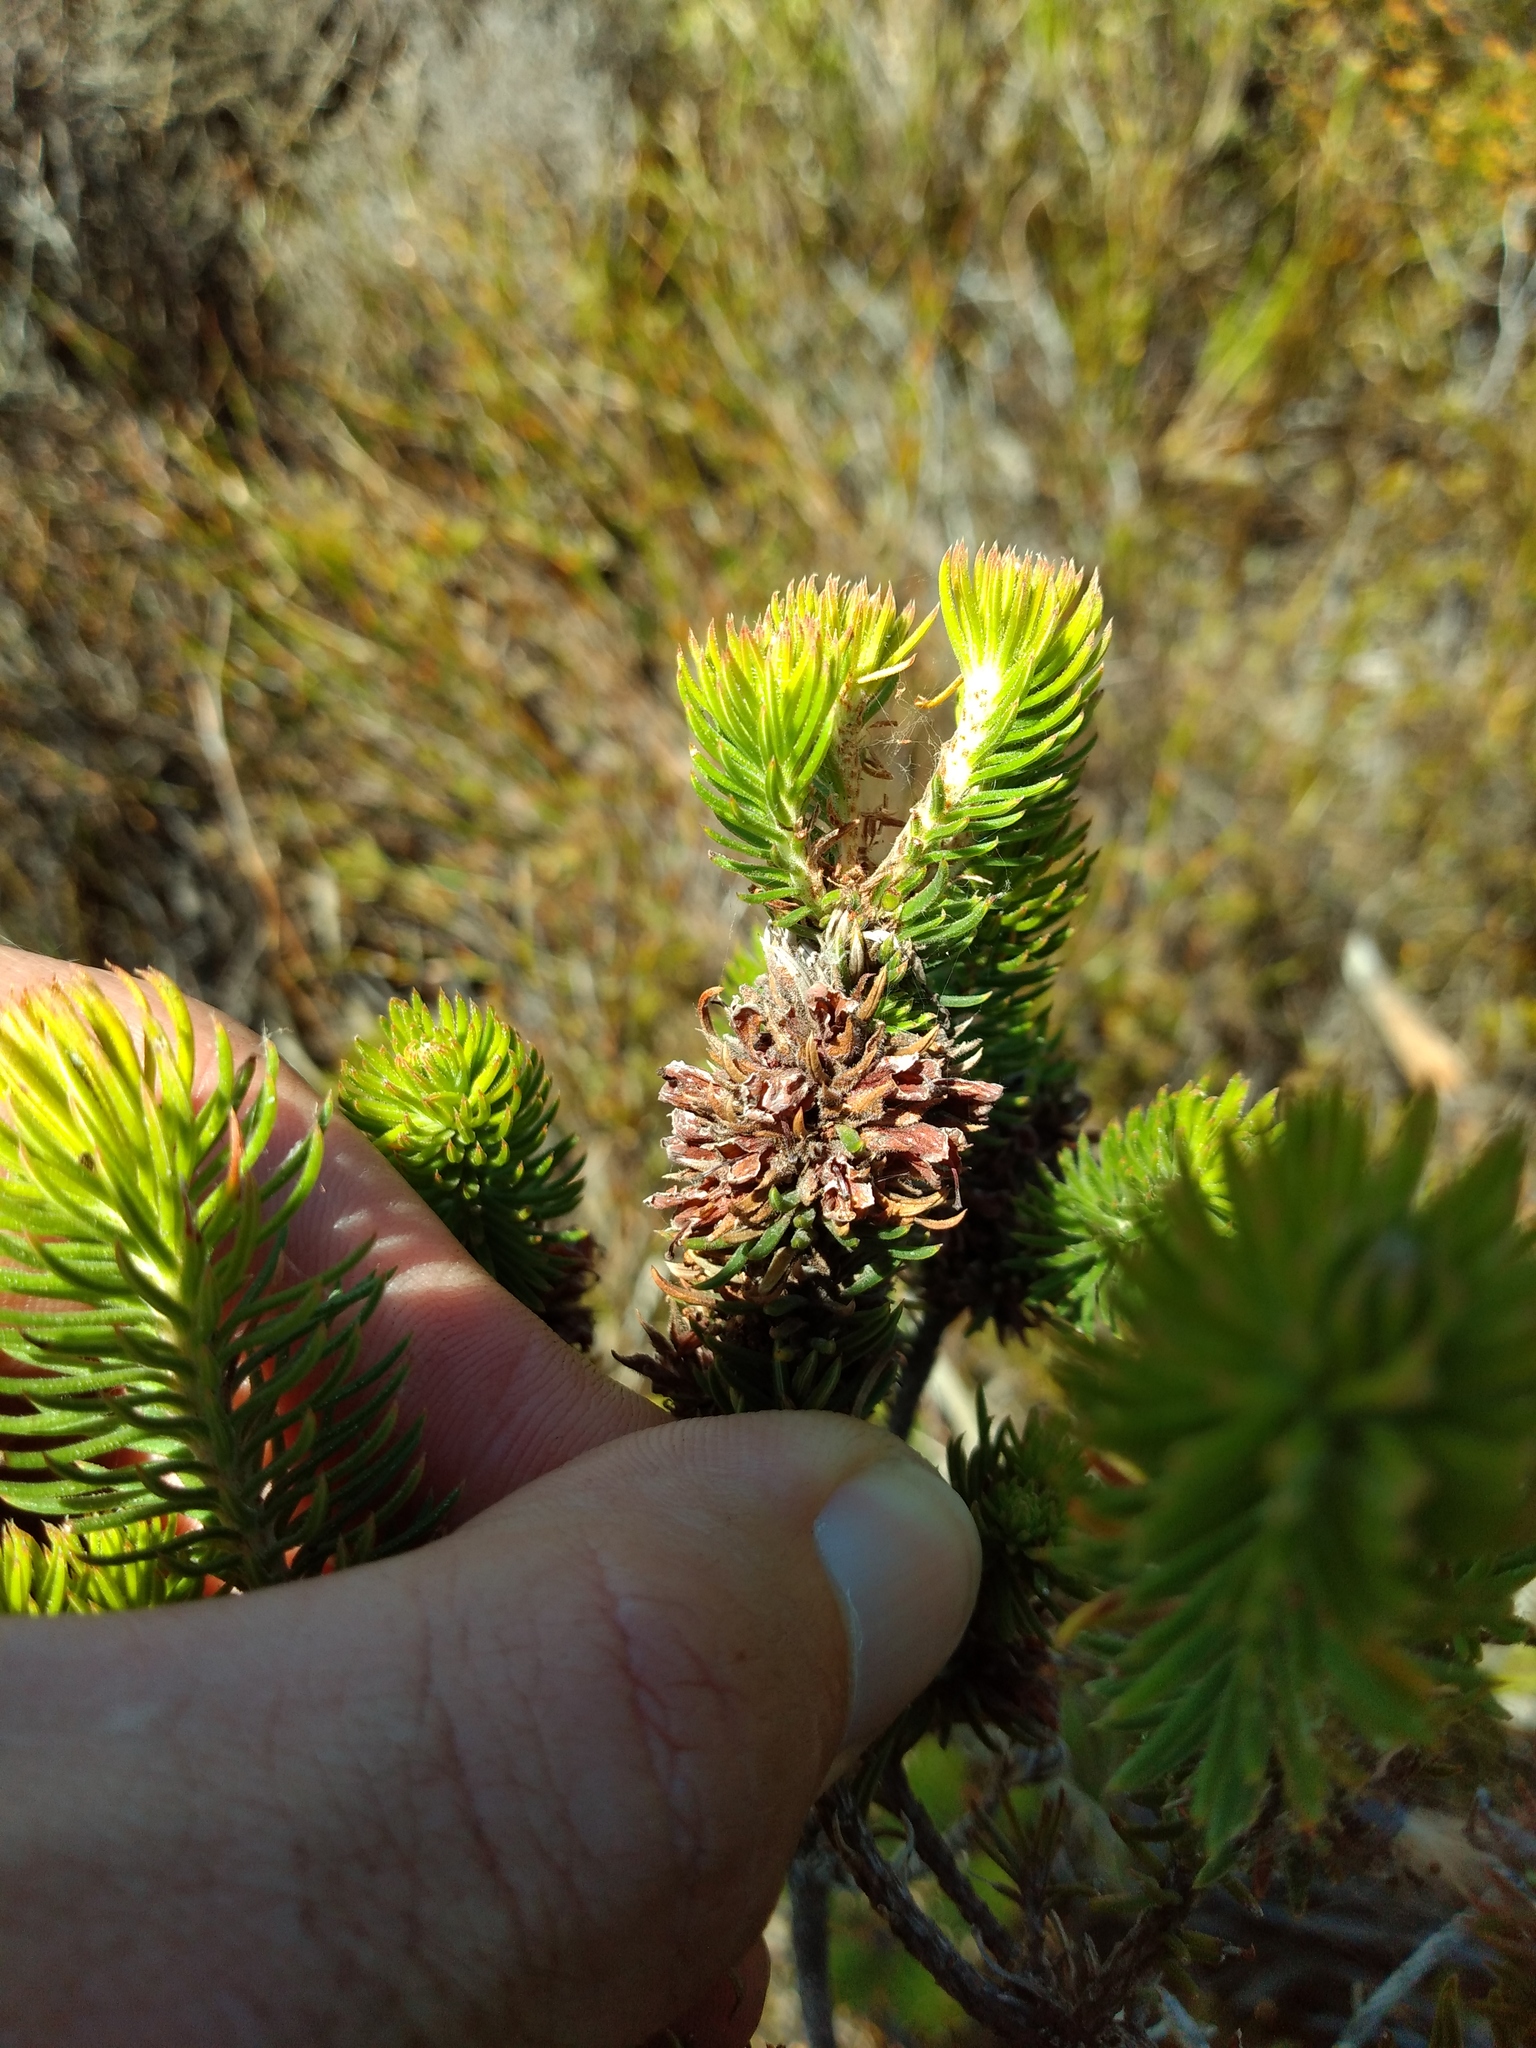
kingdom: Plantae
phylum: Tracheophyta
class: Magnoliopsida
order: Ericales
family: Ericaceae
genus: Erica
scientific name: Erica abietina
